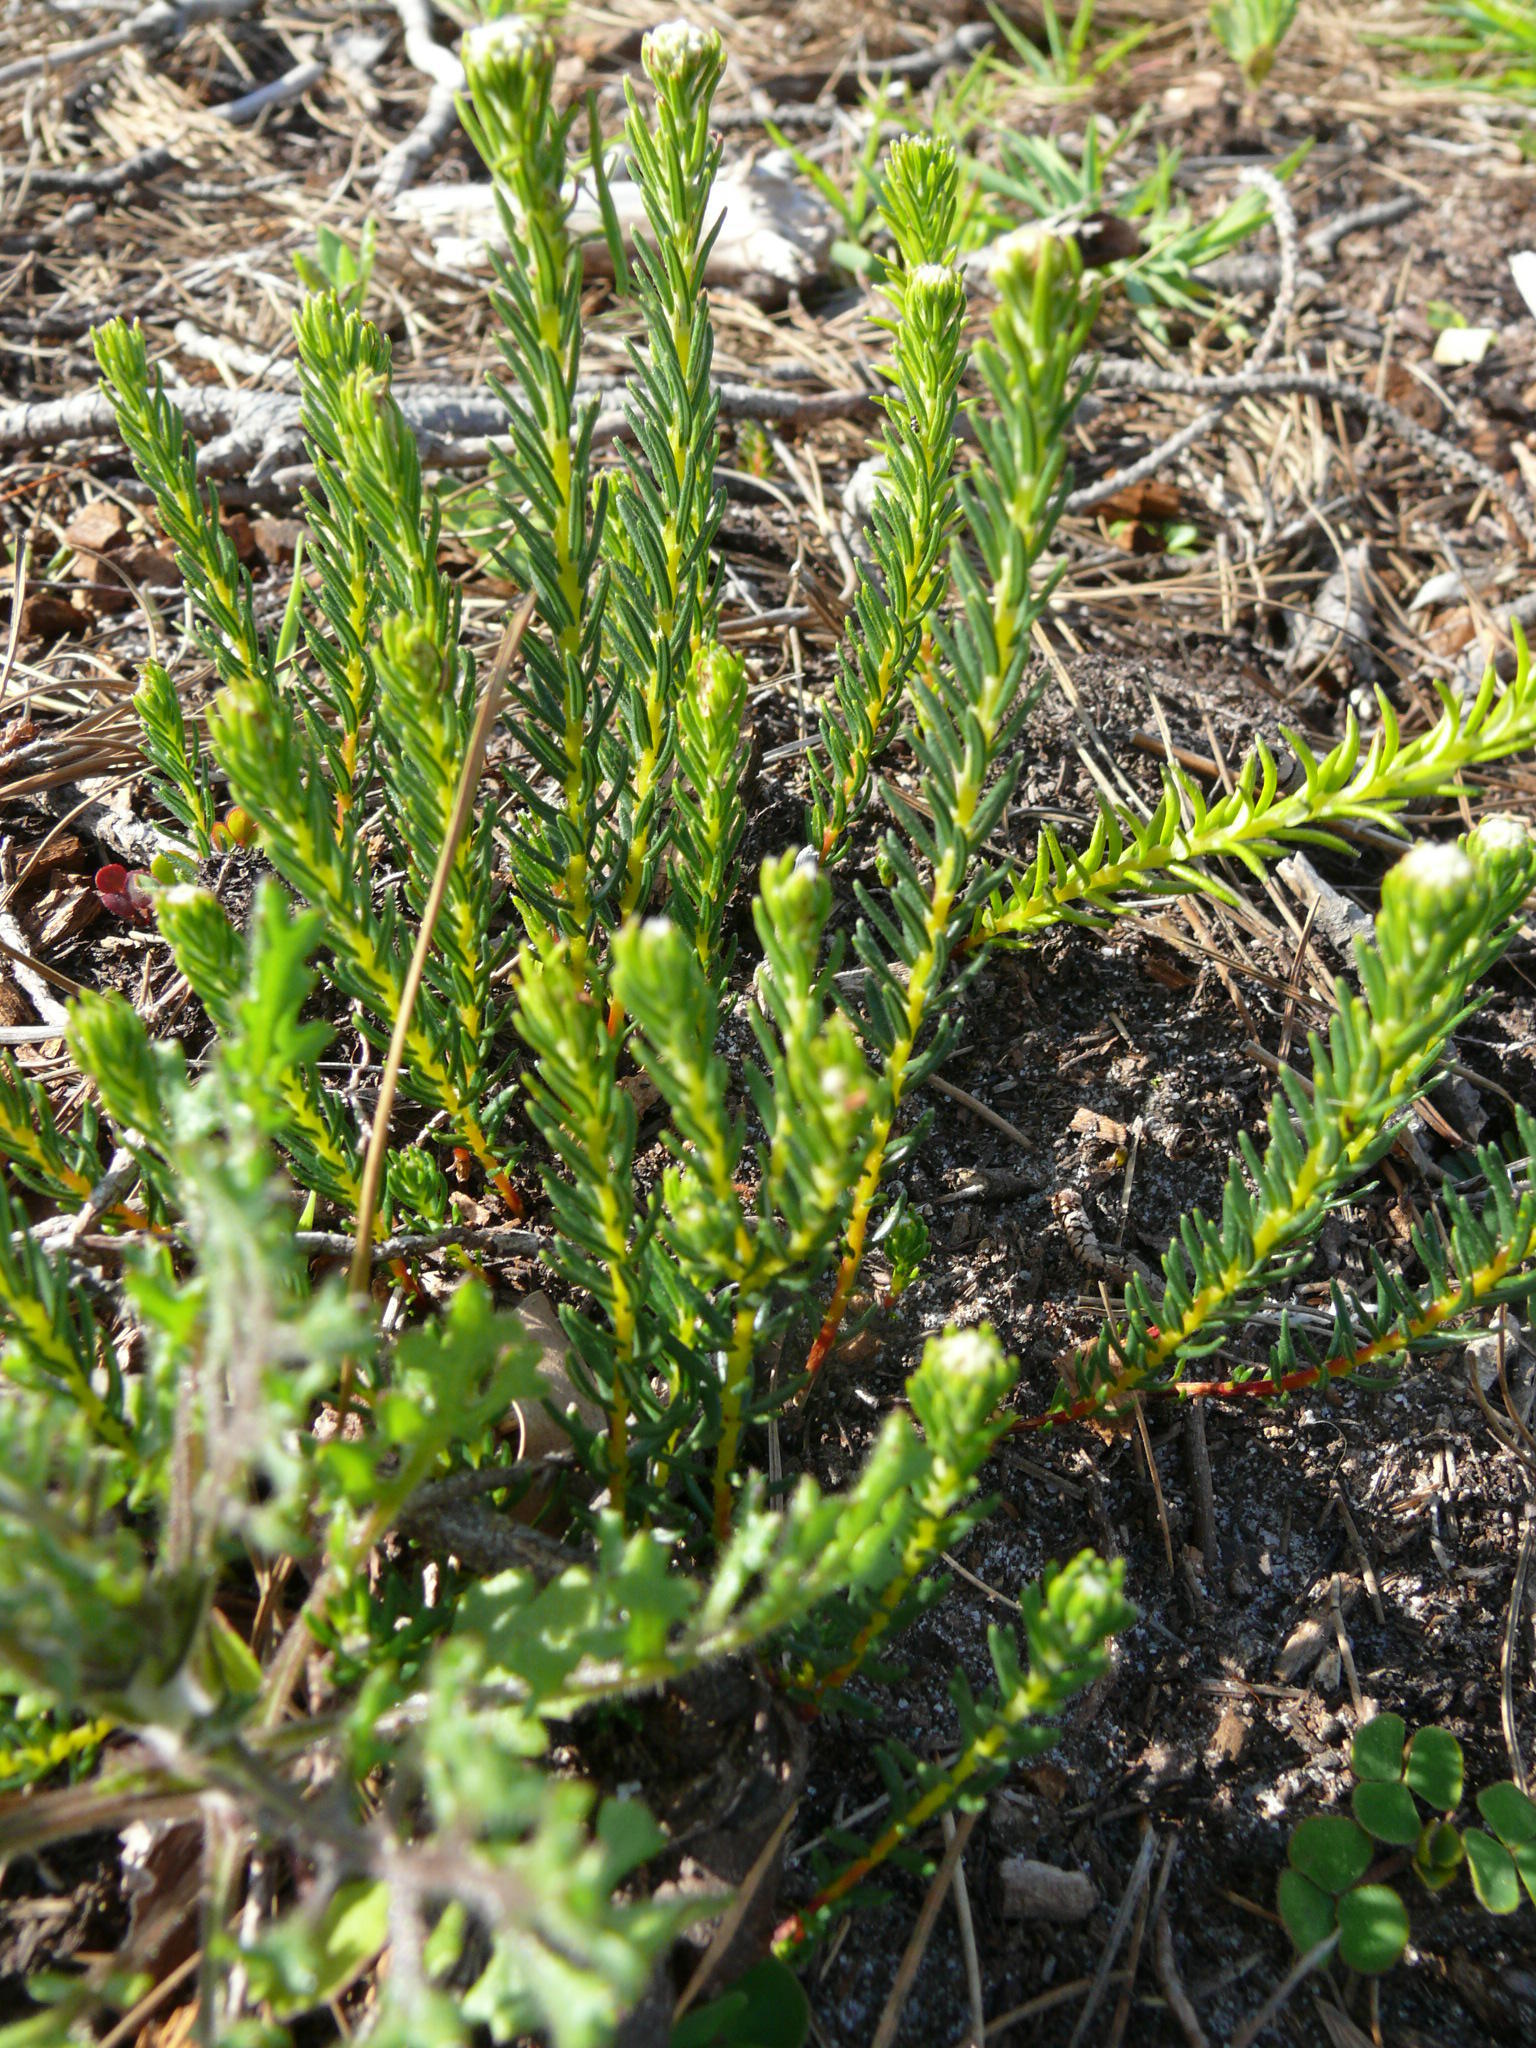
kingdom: Plantae
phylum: Tracheophyta
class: Magnoliopsida
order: Rosales
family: Rhamnaceae
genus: Phylica
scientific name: Phylica imberbis
